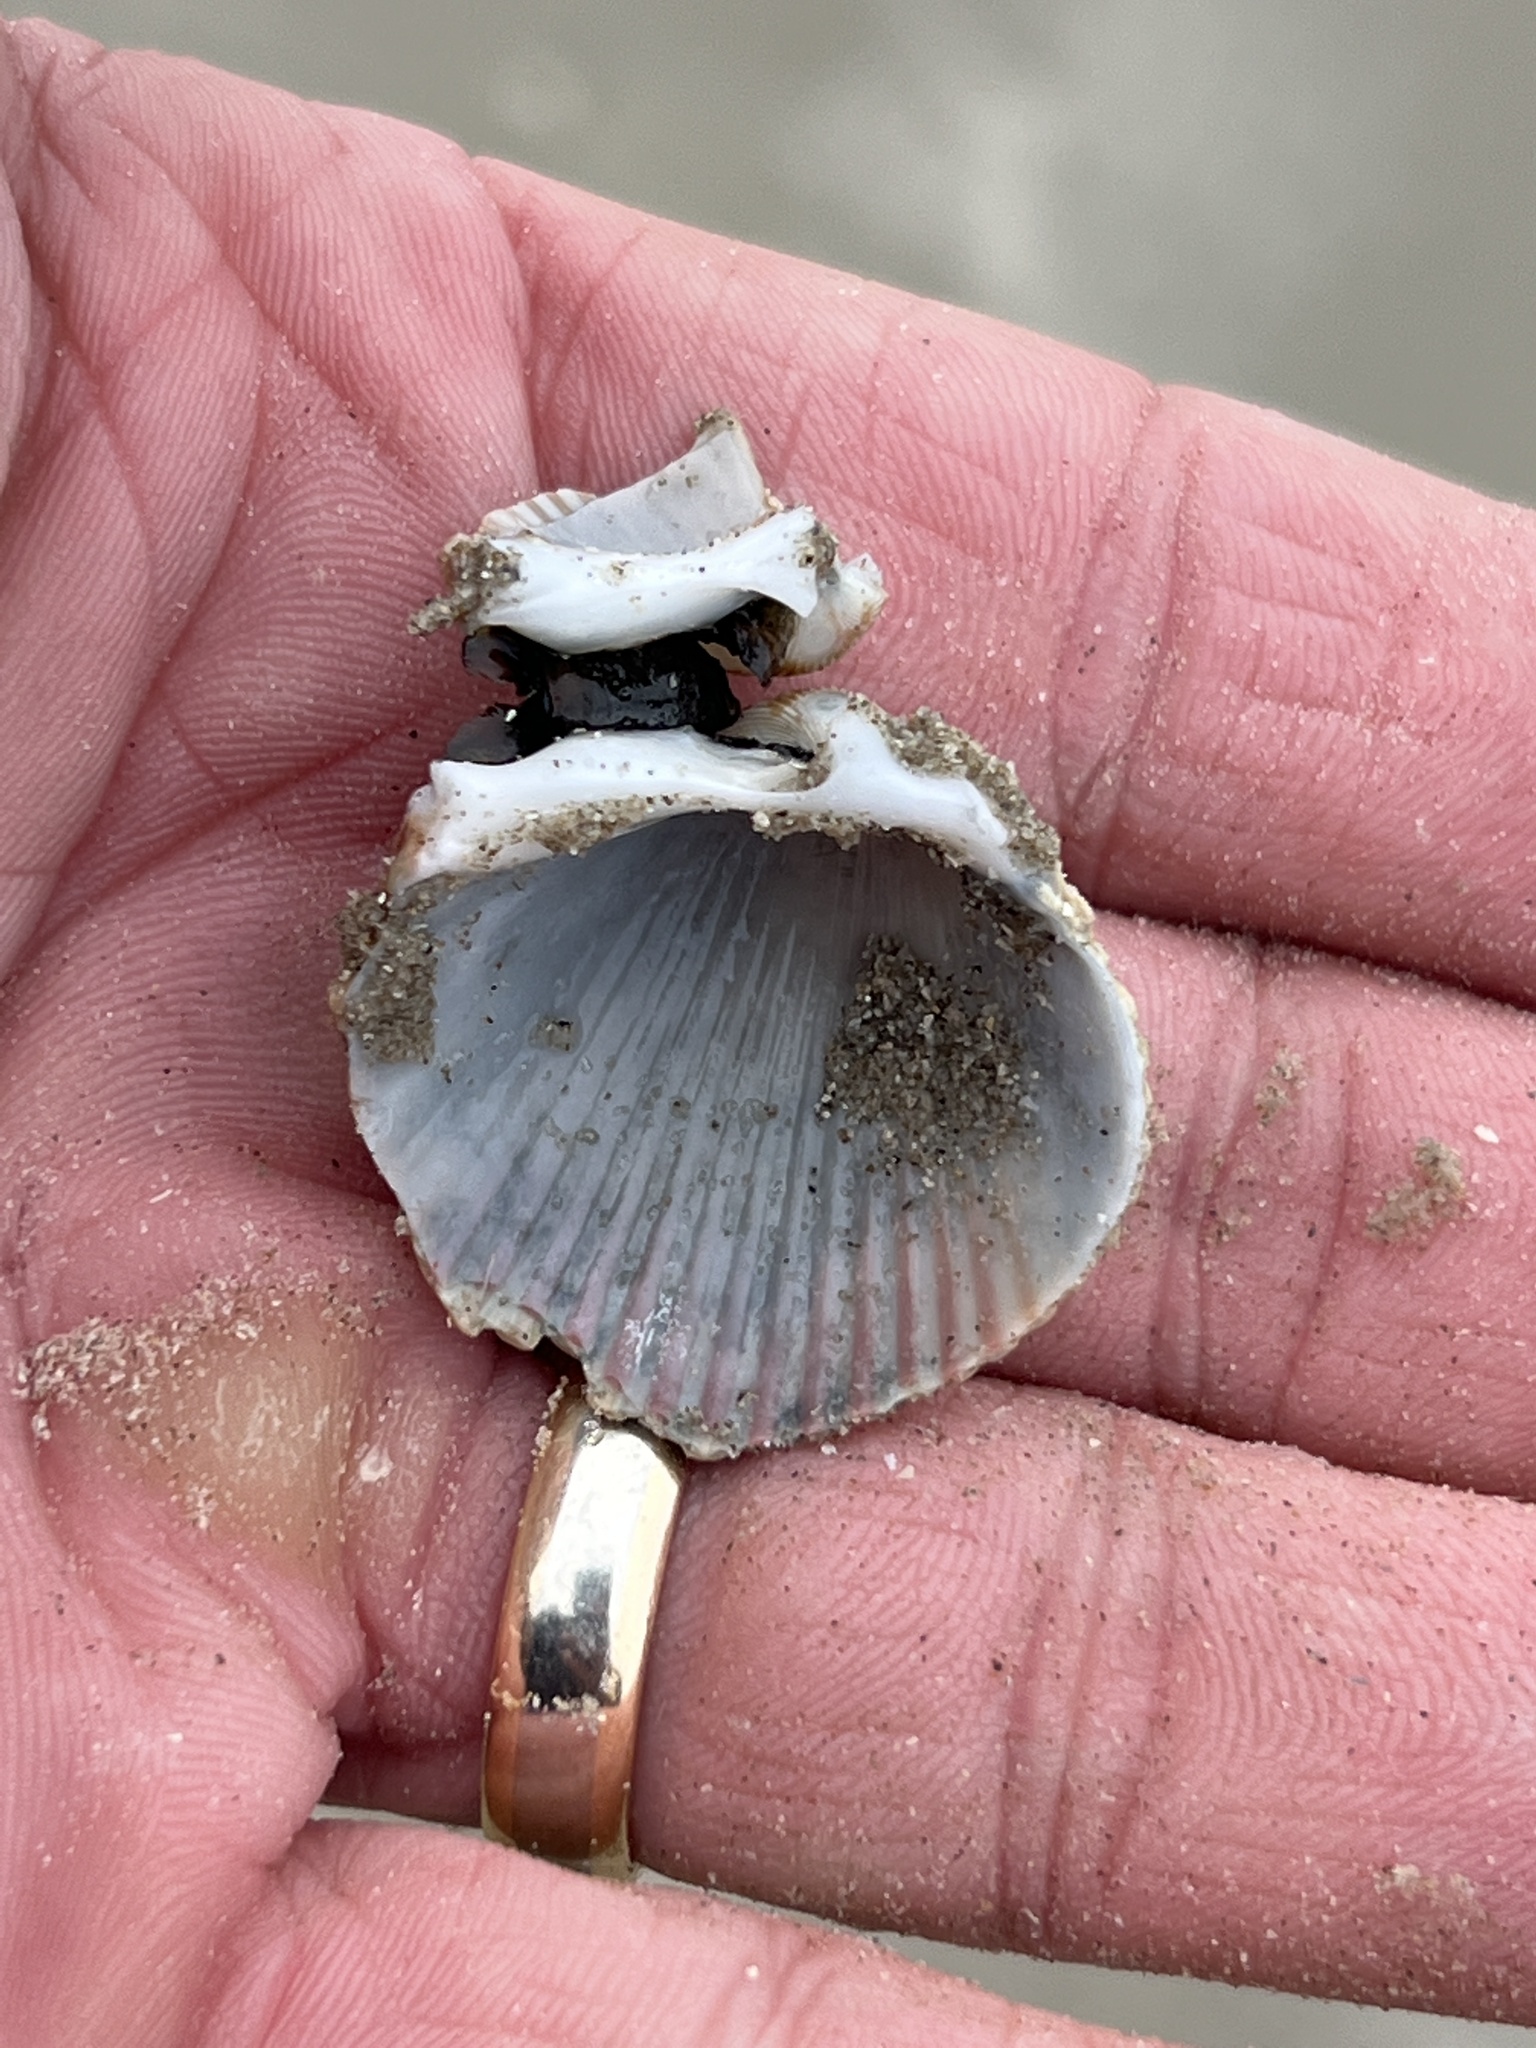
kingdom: Animalia
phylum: Mollusca
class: Bivalvia
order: Cardiida
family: Cardiidae
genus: Dinocardium
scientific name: Dinocardium robustum
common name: Atlantic giant cockle
